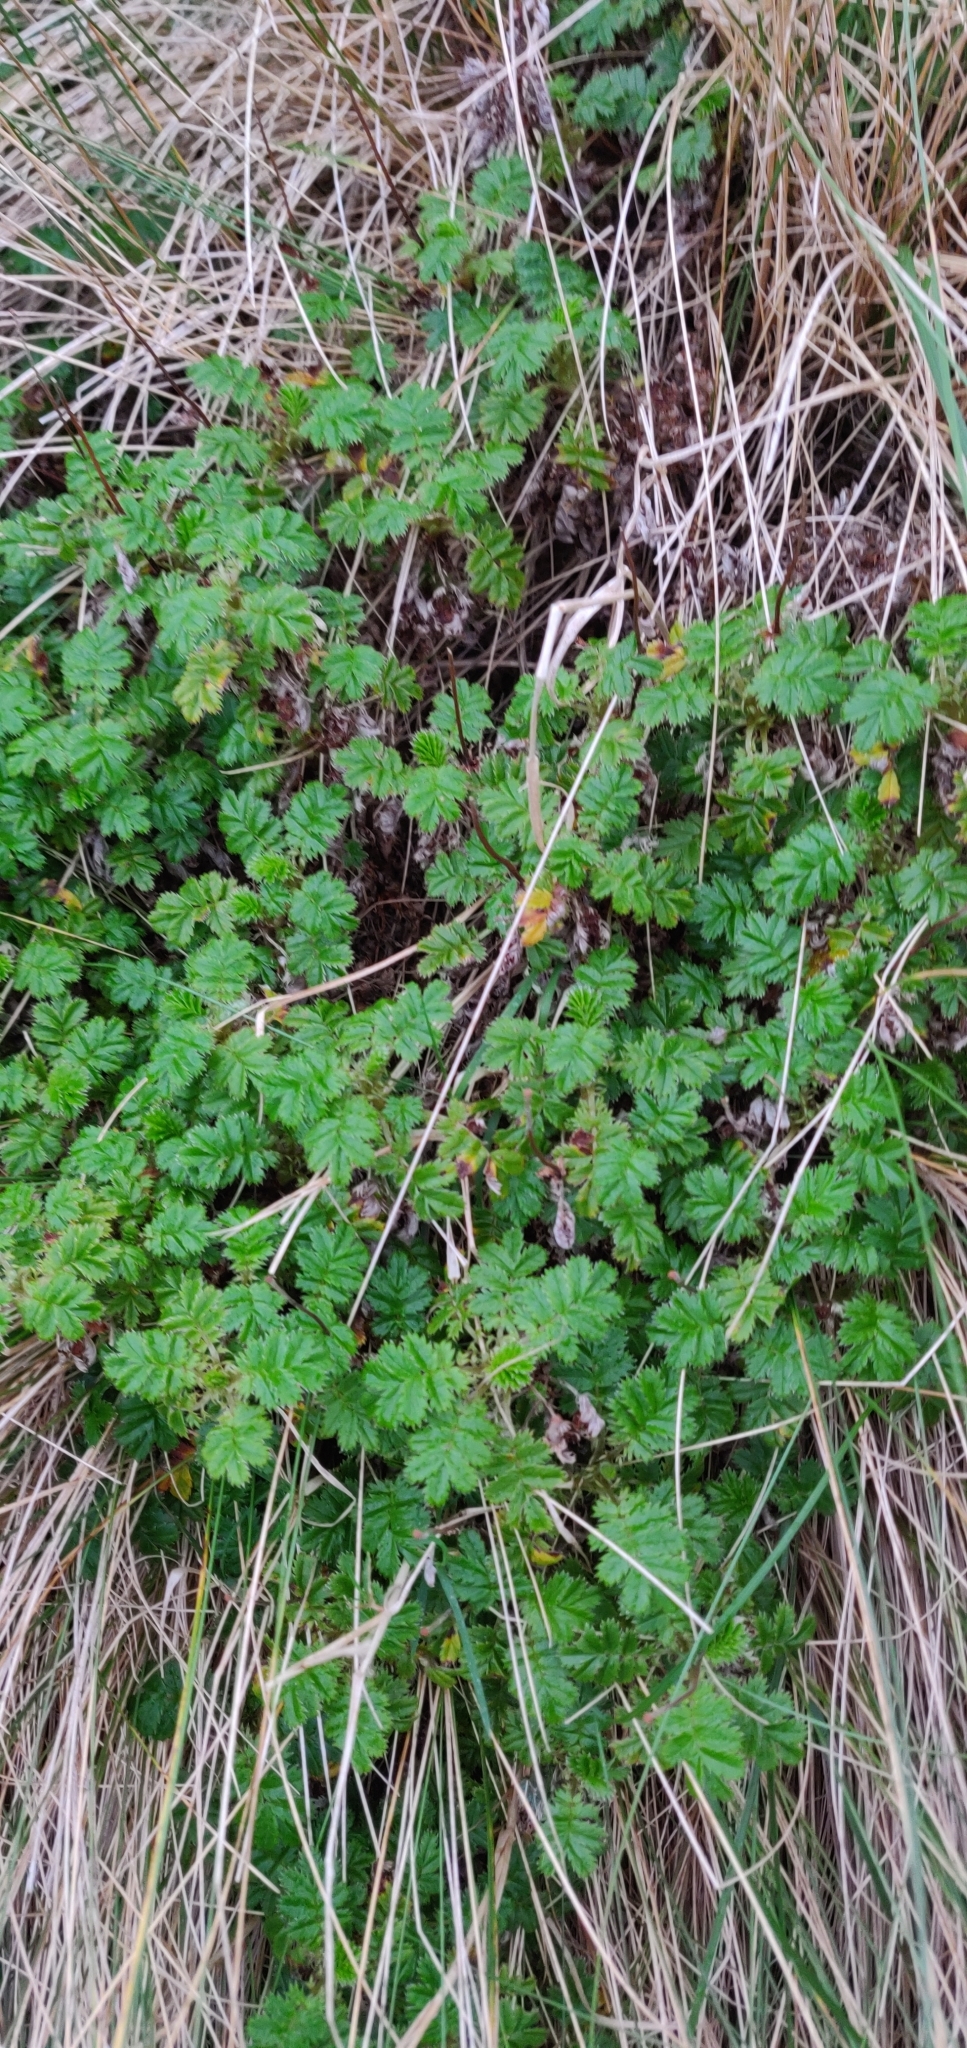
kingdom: Plantae
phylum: Tracheophyta
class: Magnoliopsida
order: Rosales
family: Rosaceae
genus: Acaena
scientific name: Acaena anserinifolia
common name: Bronze pirri-pirri-bur
